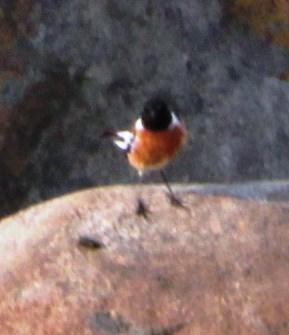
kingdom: Animalia
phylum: Chordata
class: Aves
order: Passeriformes
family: Muscicapidae
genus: Saxicola
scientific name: Saxicola torquatus
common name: African stonechat
